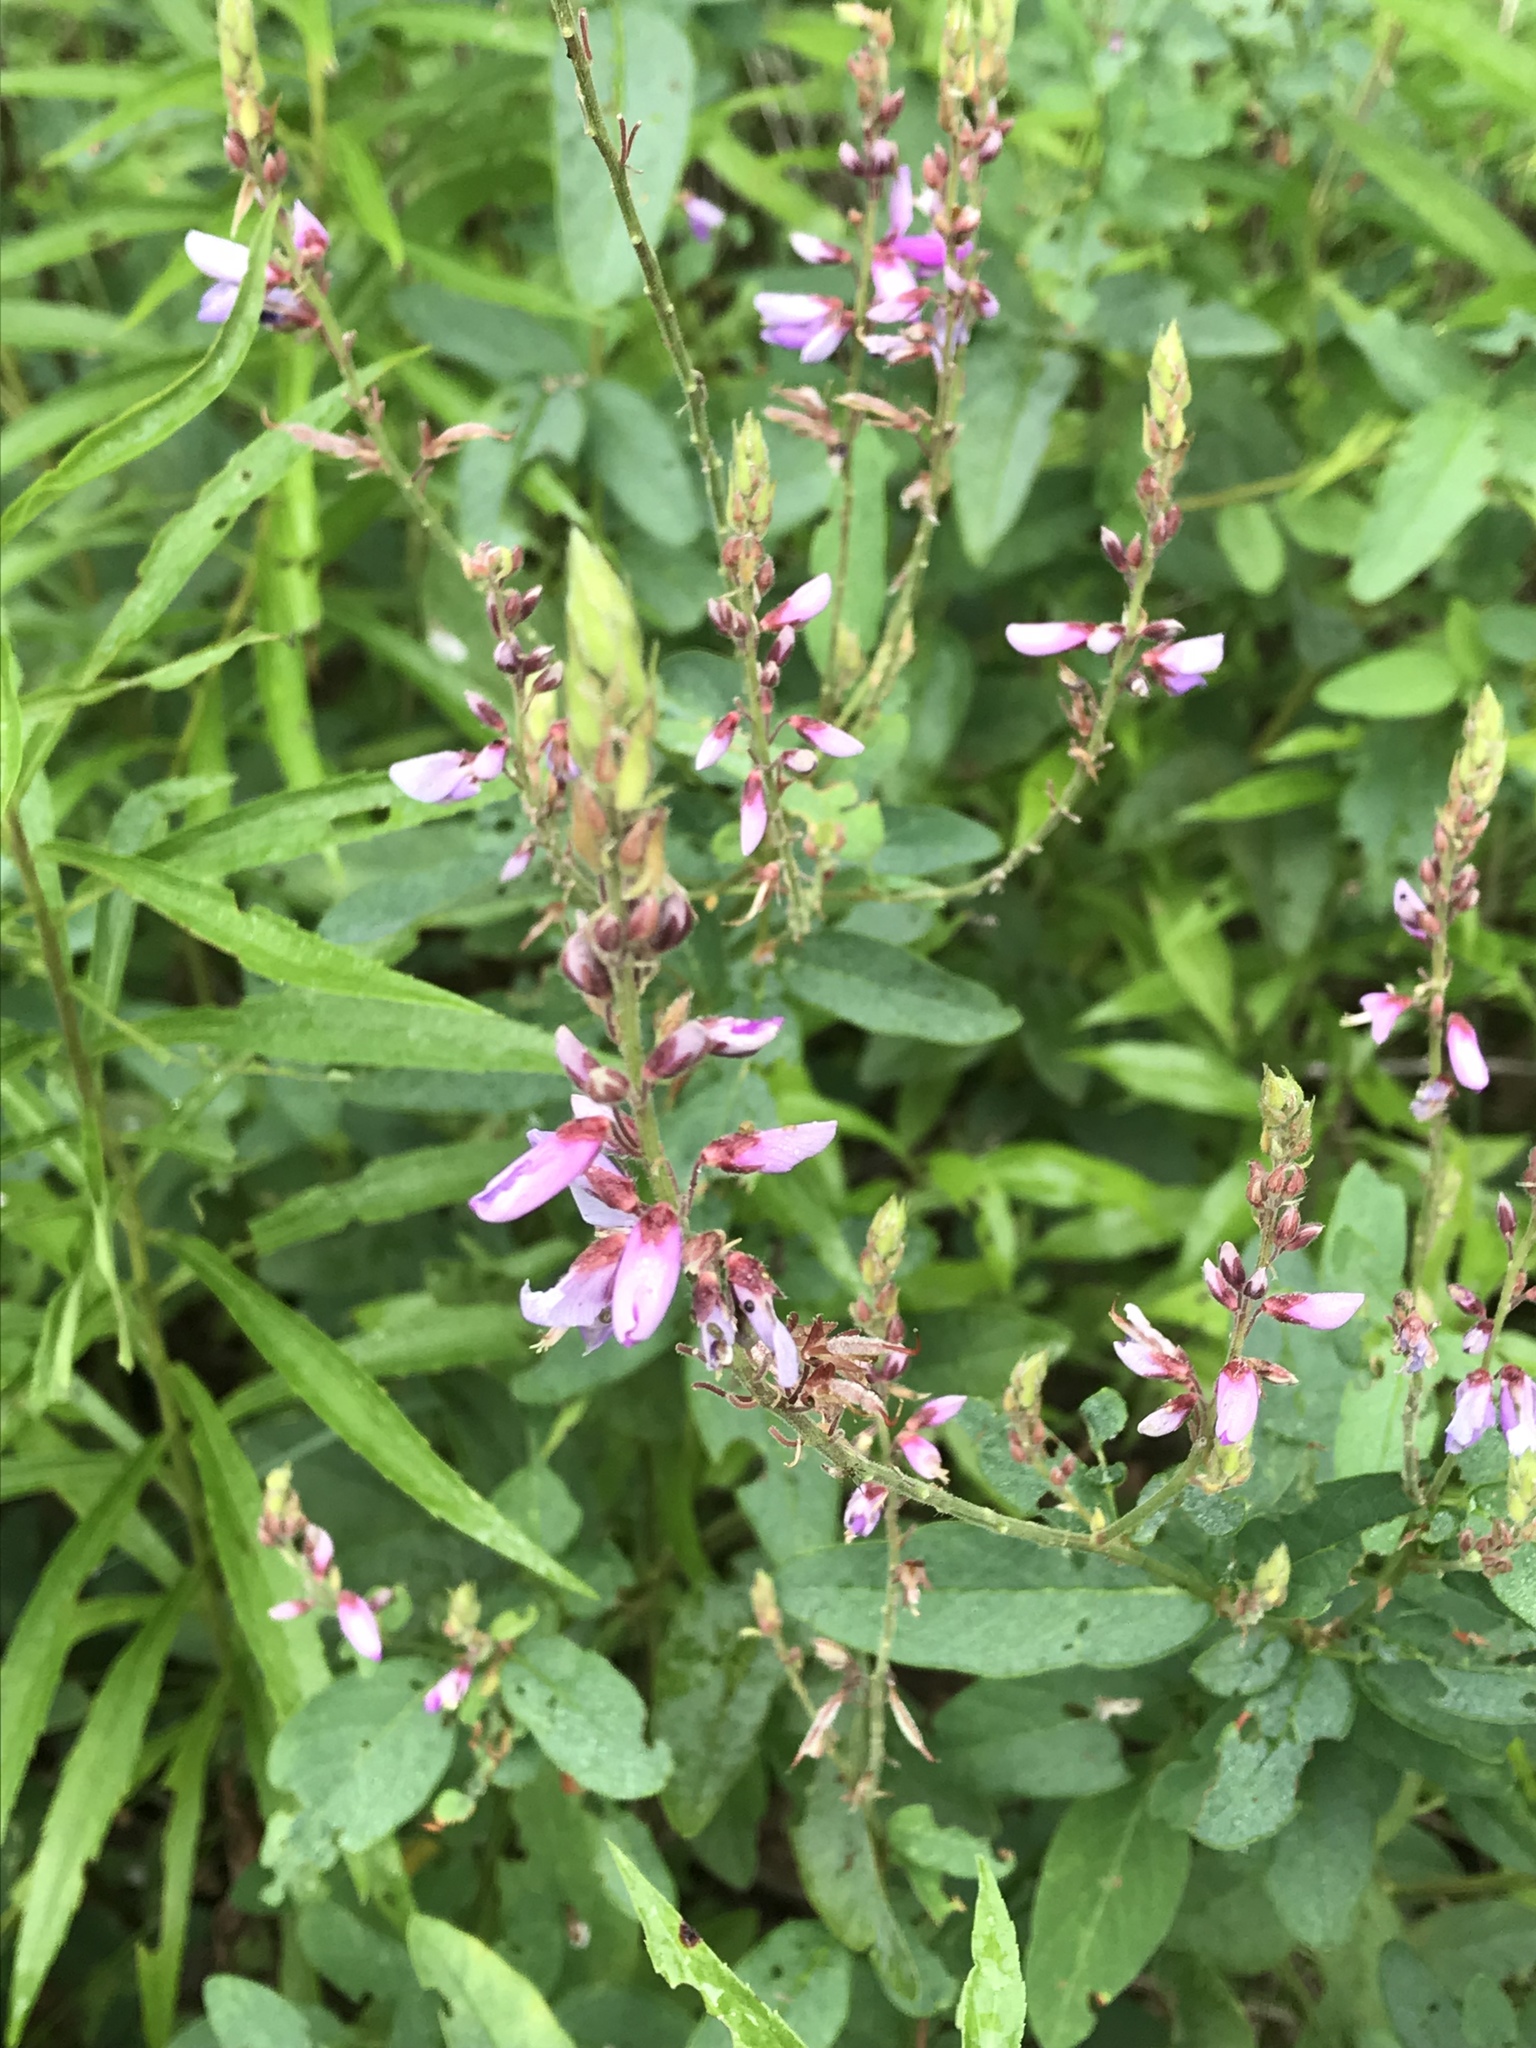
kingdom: Plantae
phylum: Tracheophyta
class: Magnoliopsida
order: Fabales
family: Fabaceae
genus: Desmodium
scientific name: Desmodium canadense
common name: Canada tick-trefoil
